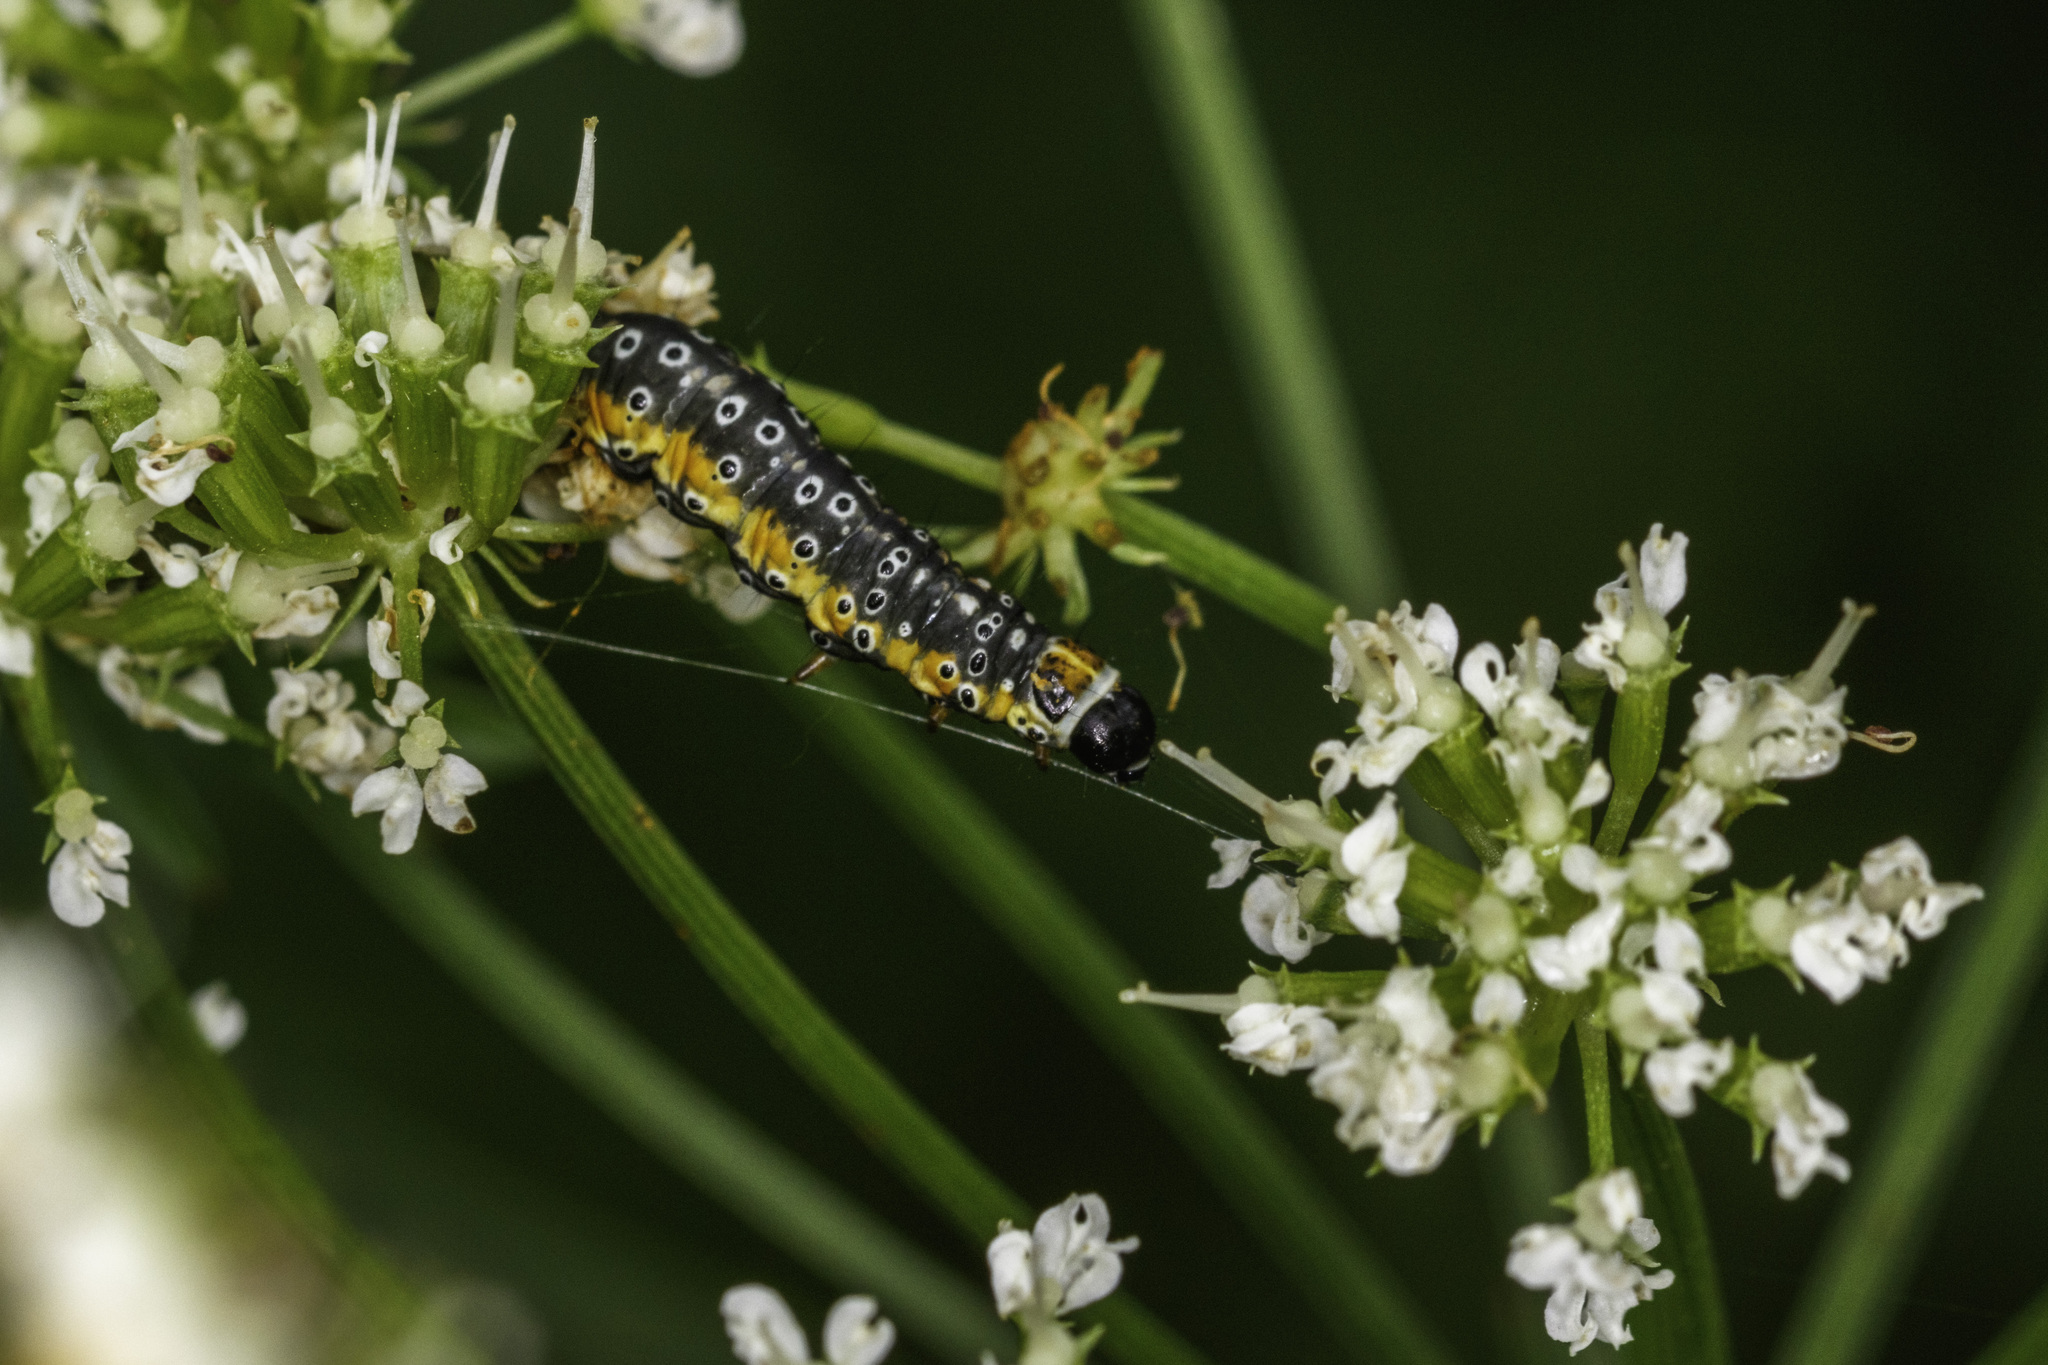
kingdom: Animalia
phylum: Arthropoda
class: Insecta
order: Lepidoptera
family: Depressariidae
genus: Depressaria
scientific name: Depressaria apiella
